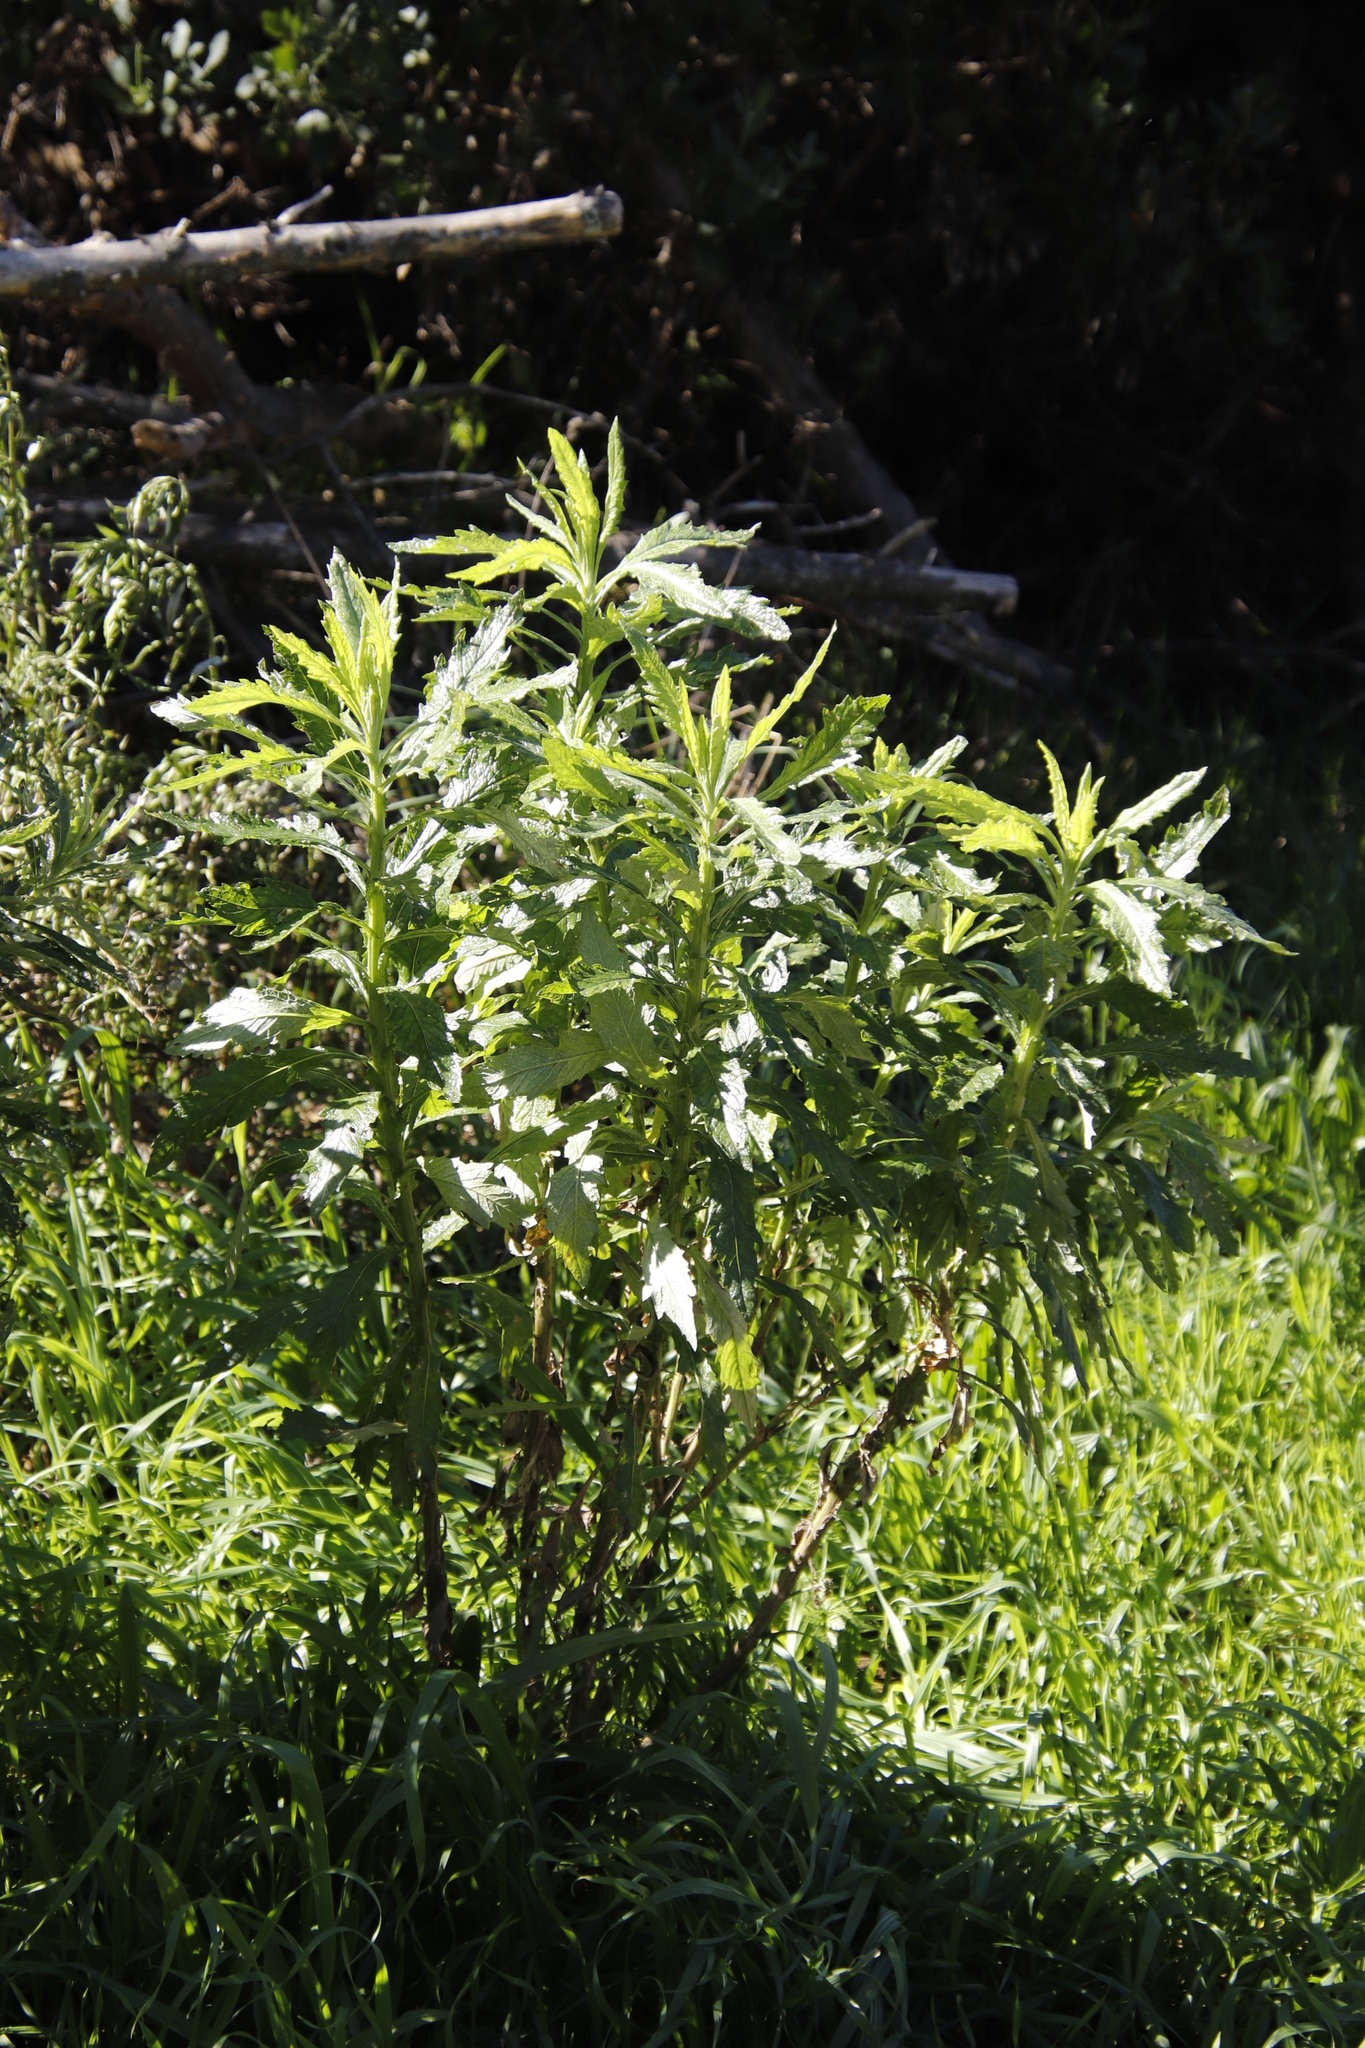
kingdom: Plantae
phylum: Tracheophyta
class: Magnoliopsida
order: Asterales
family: Asteraceae
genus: Senecio
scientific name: Senecio pterophorus
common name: Shoddy ragwort
